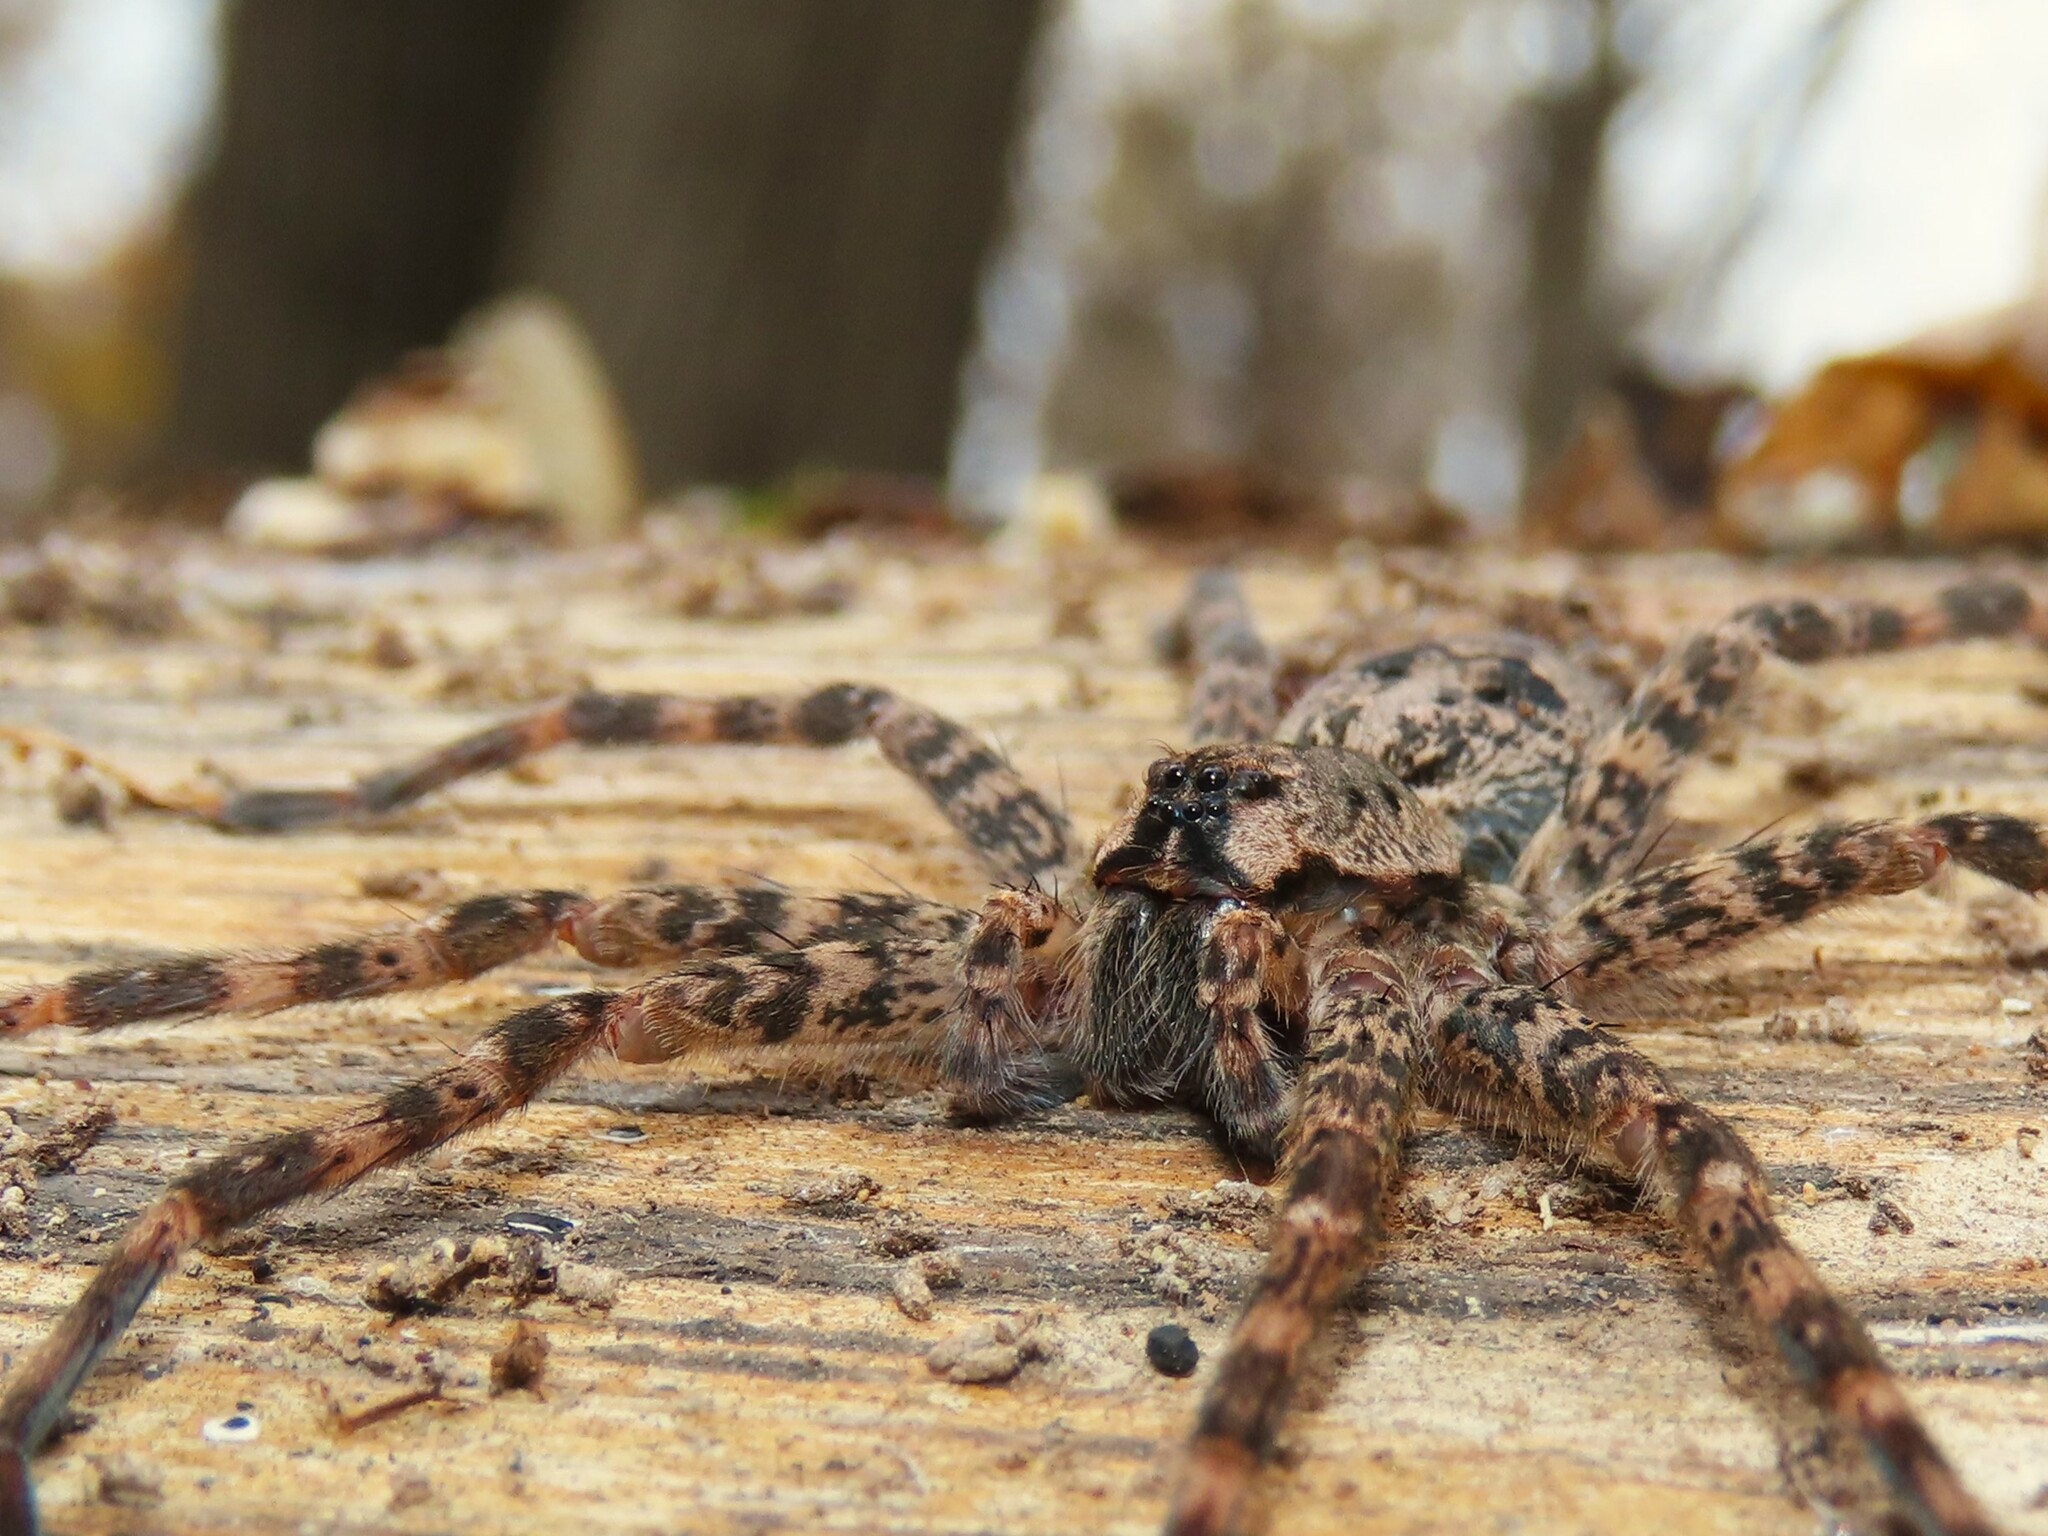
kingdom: Animalia
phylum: Arthropoda
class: Arachnida
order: Araneae
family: Pisauridae
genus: Dolomedes
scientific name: Dolomedes tenebrosus
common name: Dark fishing spider
